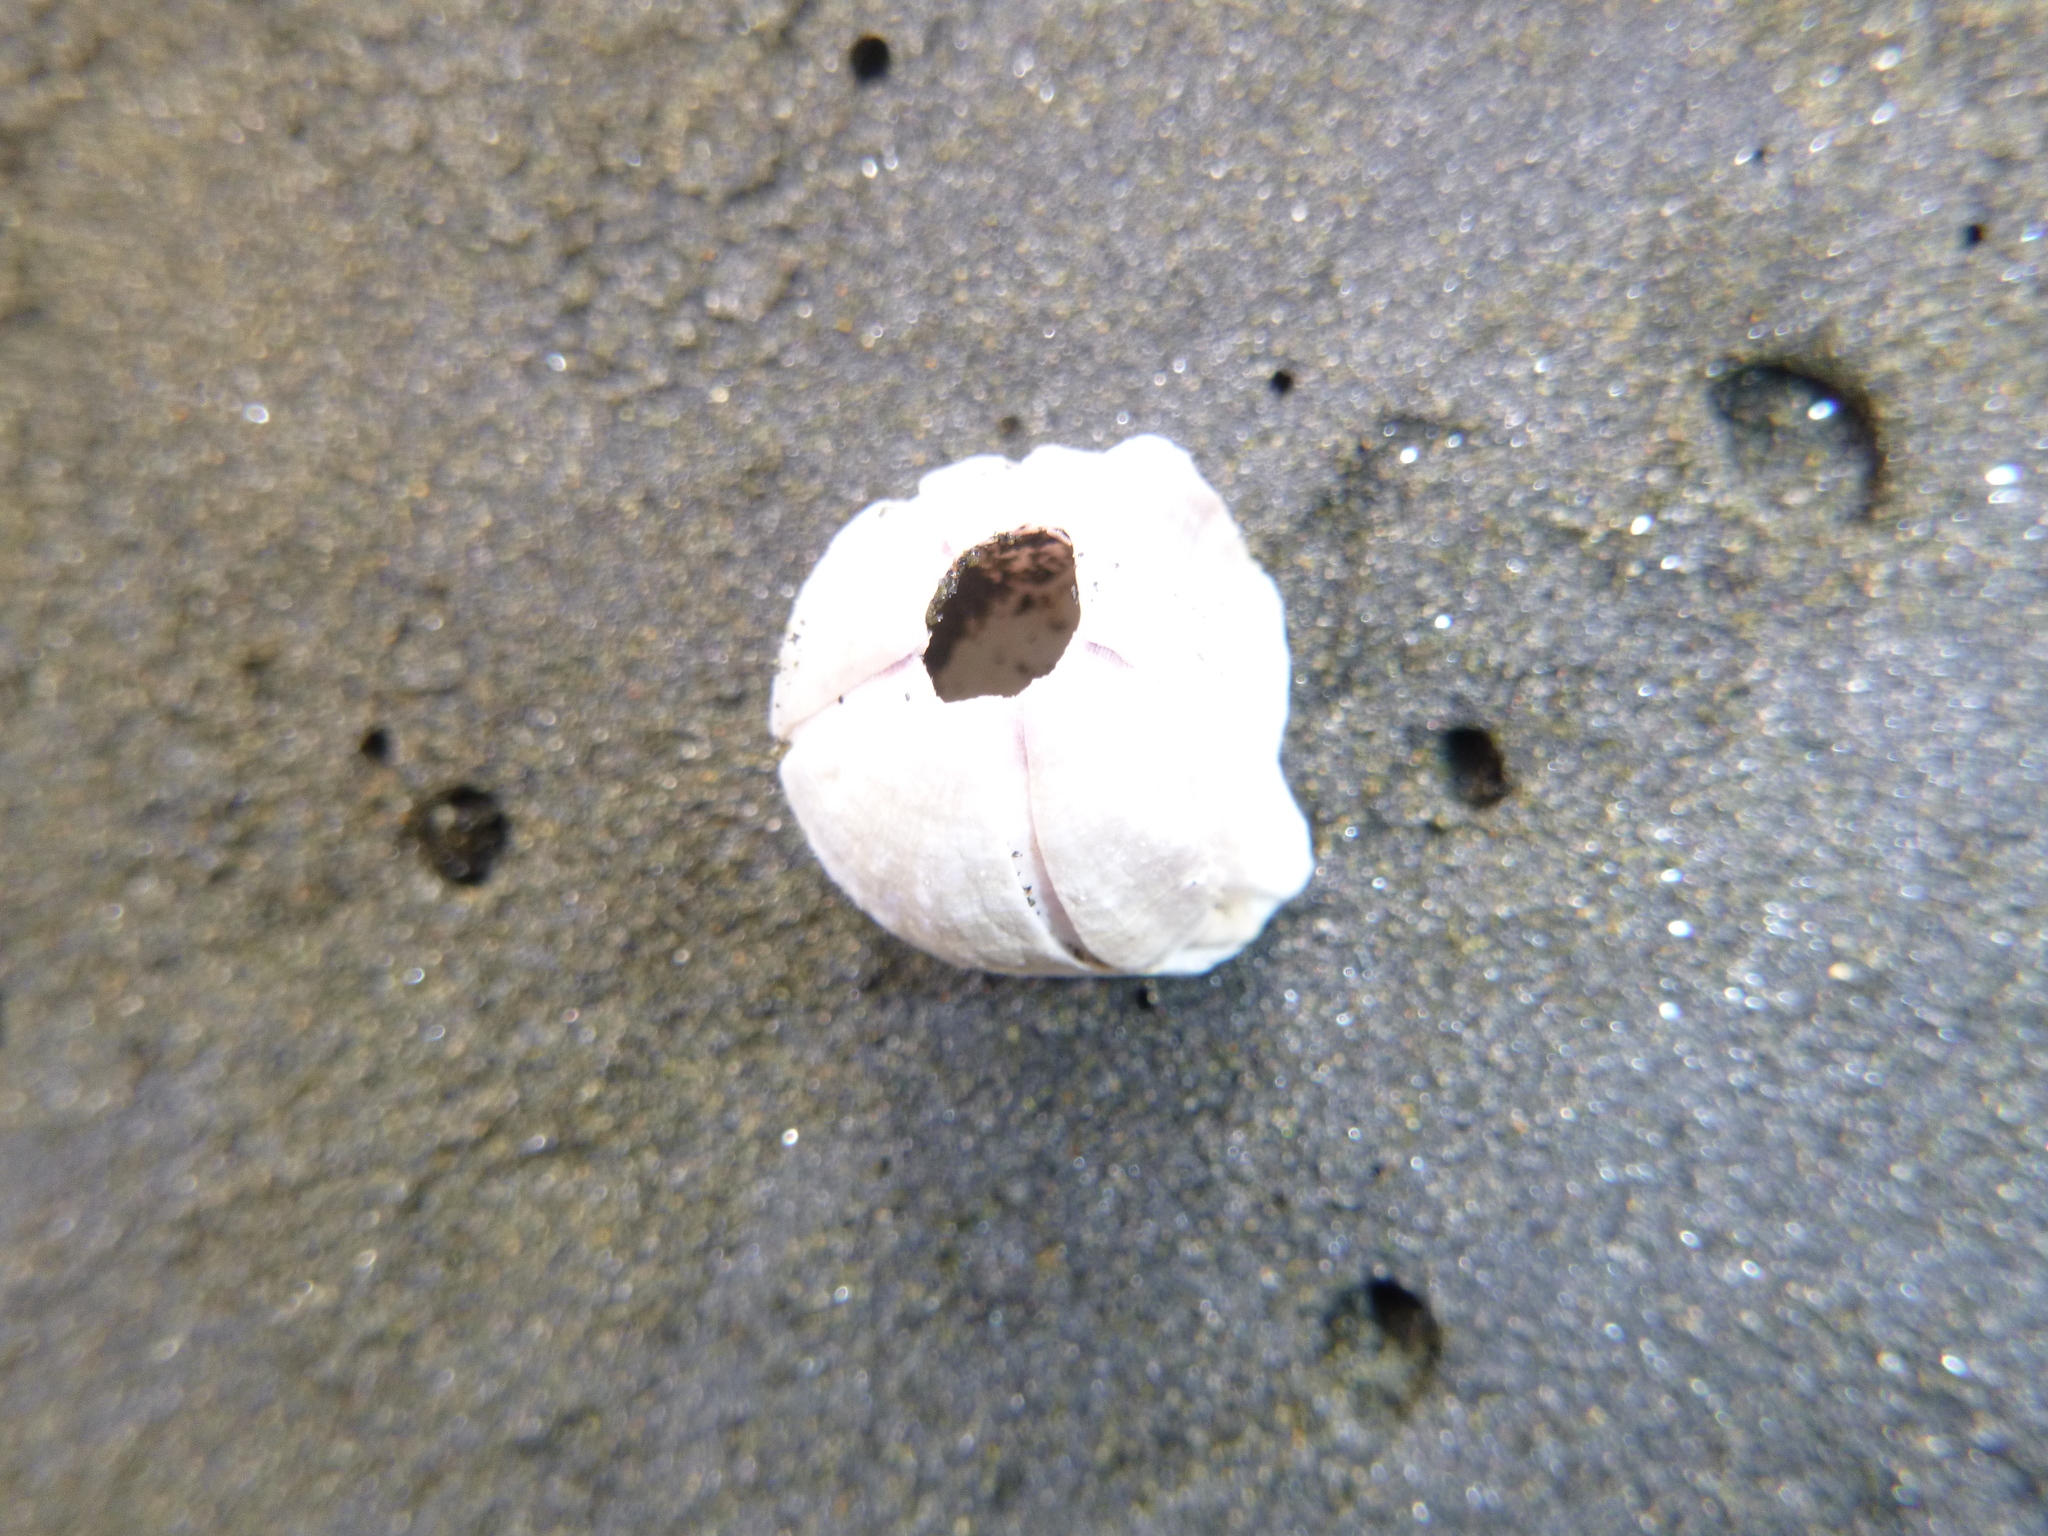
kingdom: Animalia
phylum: Arthropoda
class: Maxillopoda
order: Sessilia
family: Balanidae
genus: Austromegabalanus
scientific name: Austromegabalanus nigrescens
